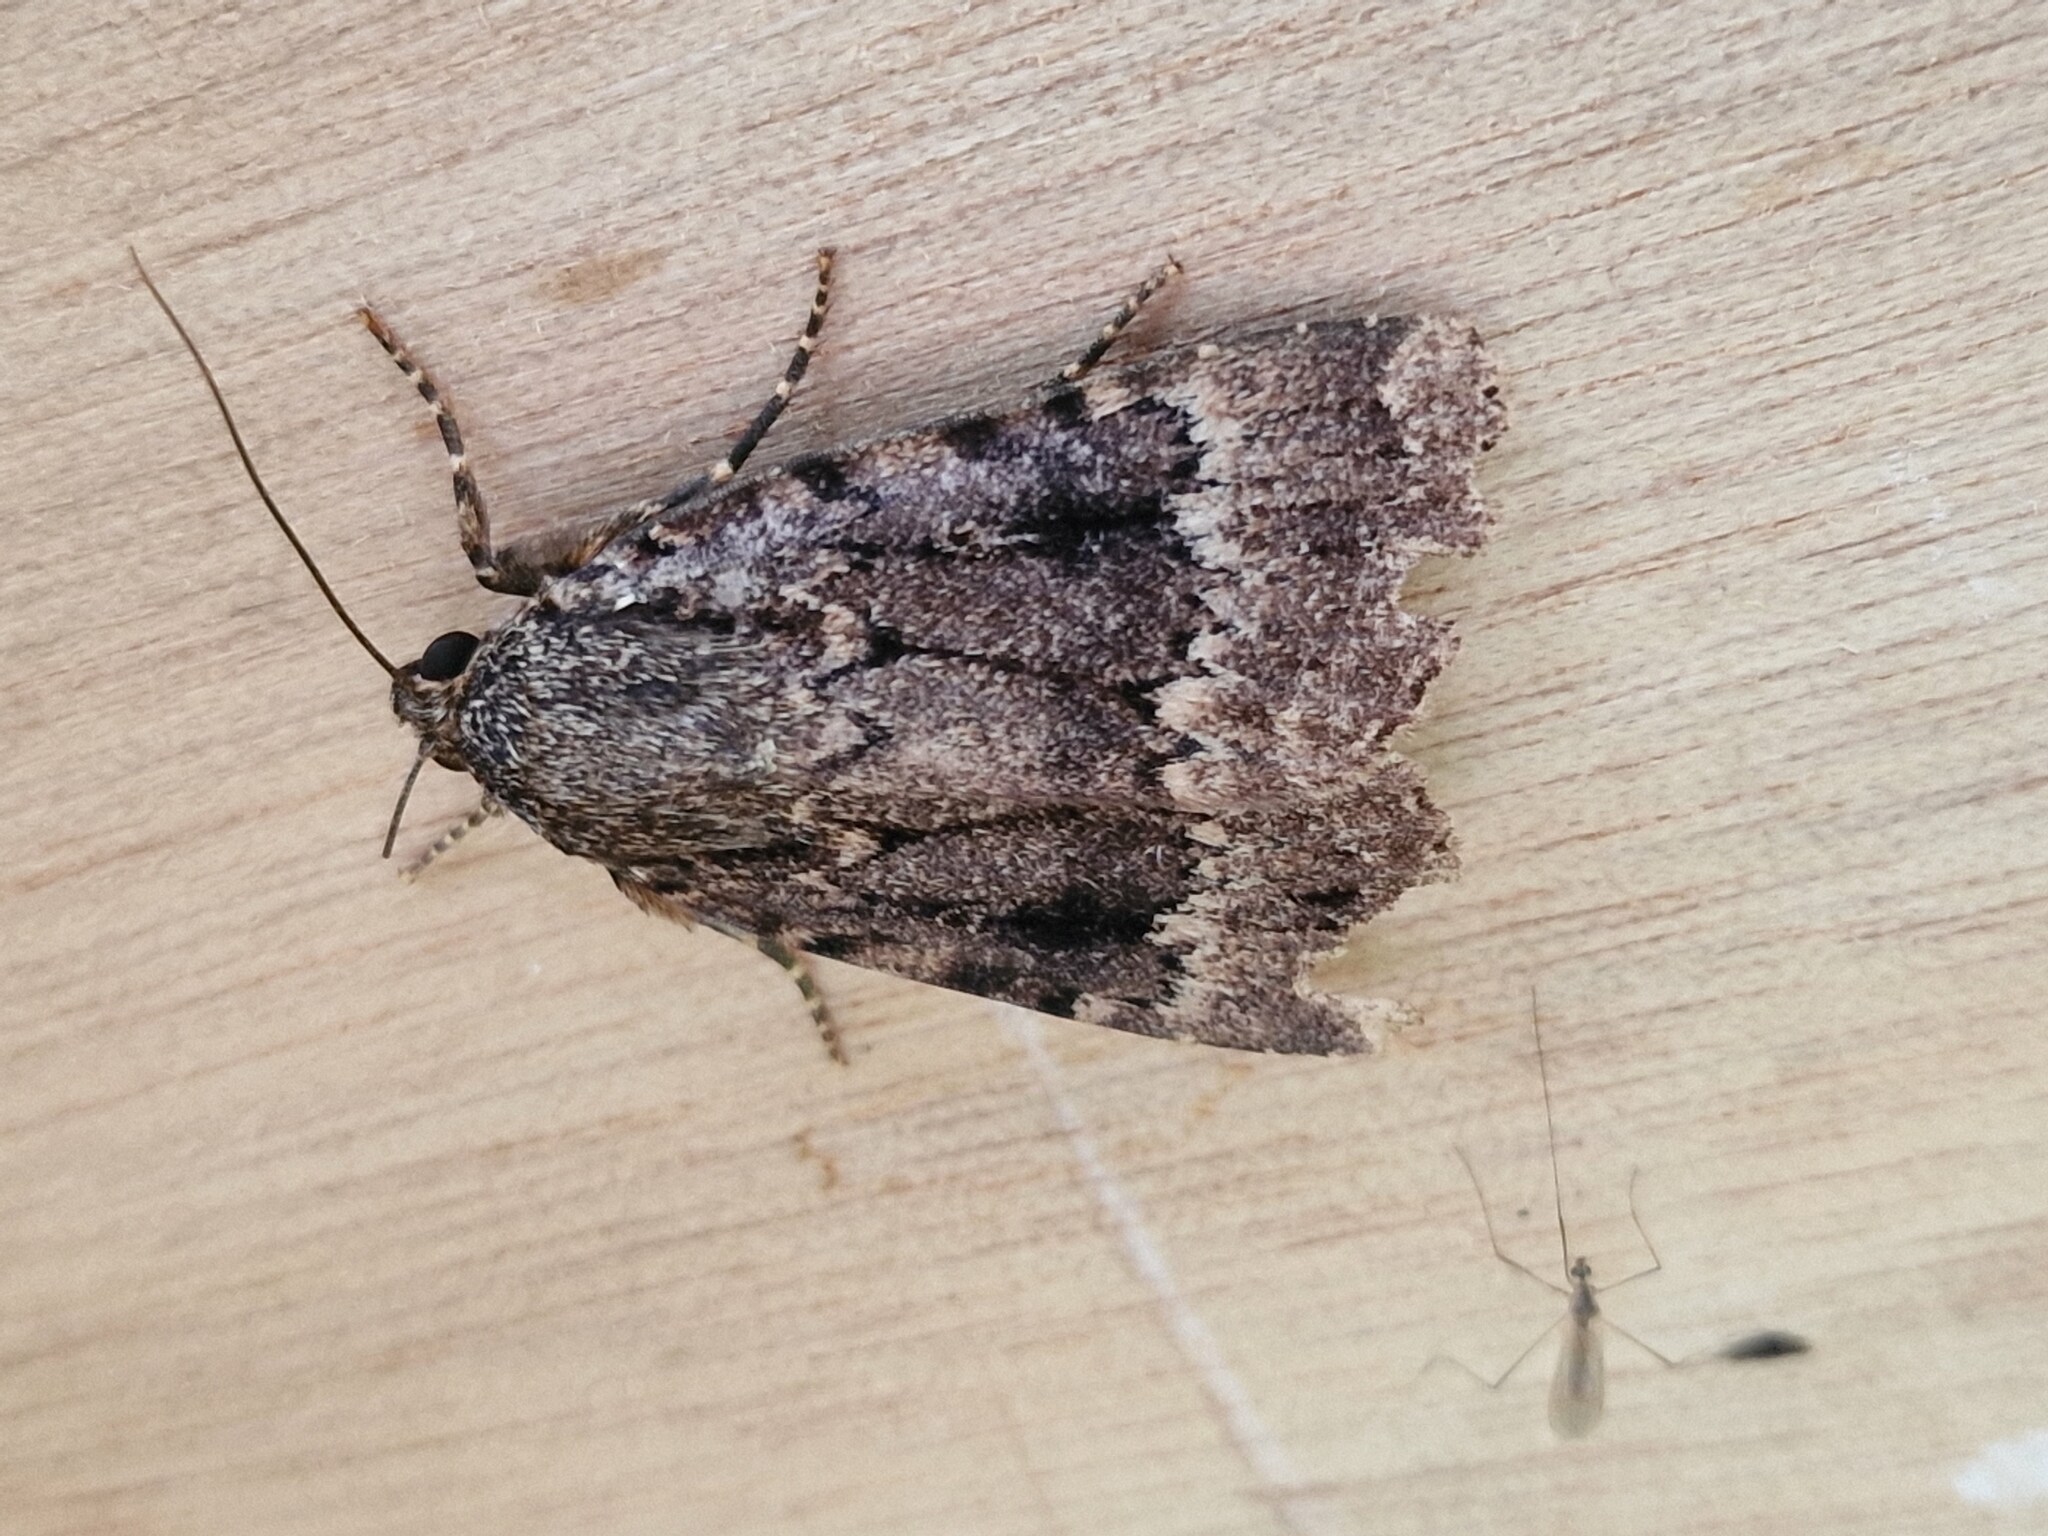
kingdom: Animalia
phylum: Arthropoda
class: Insecta
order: Lepidoptera
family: Noctuidae
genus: Amphipyra
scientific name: Amphipyra pyramidea
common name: Copper underwing
